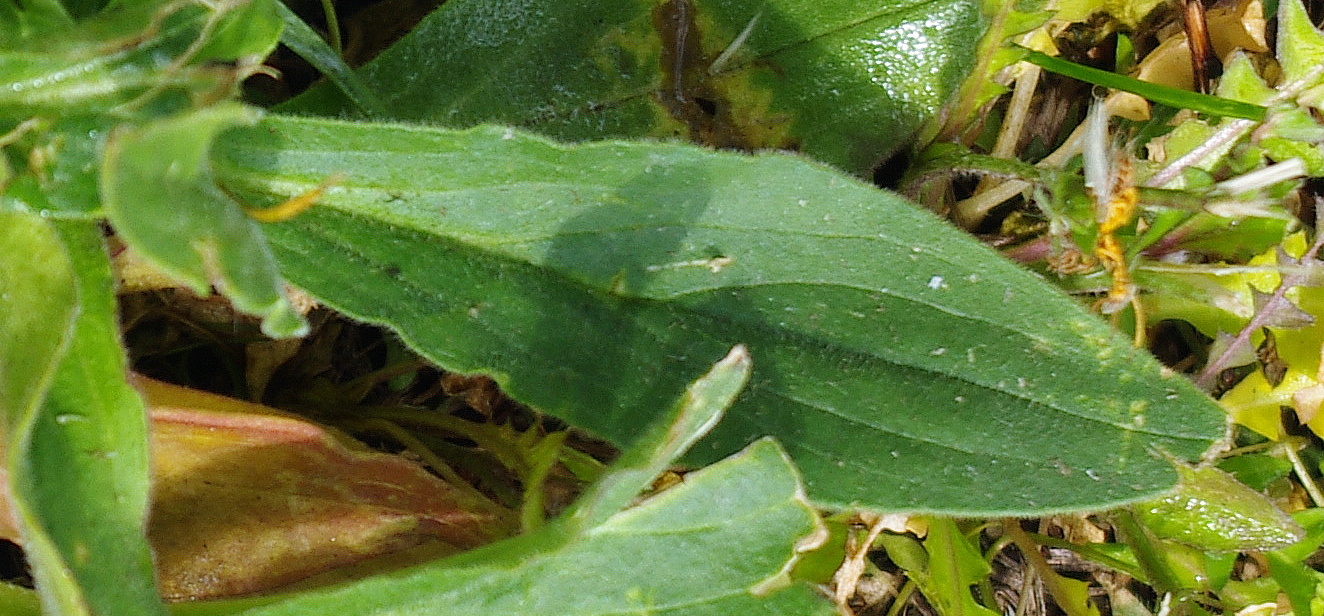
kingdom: Plantae
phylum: Tracheophyta
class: Magnoliopsida
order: Lamiales
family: Plantaginaceae
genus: Plantago
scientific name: Plantago lanceolata
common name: Ribwort plantain
